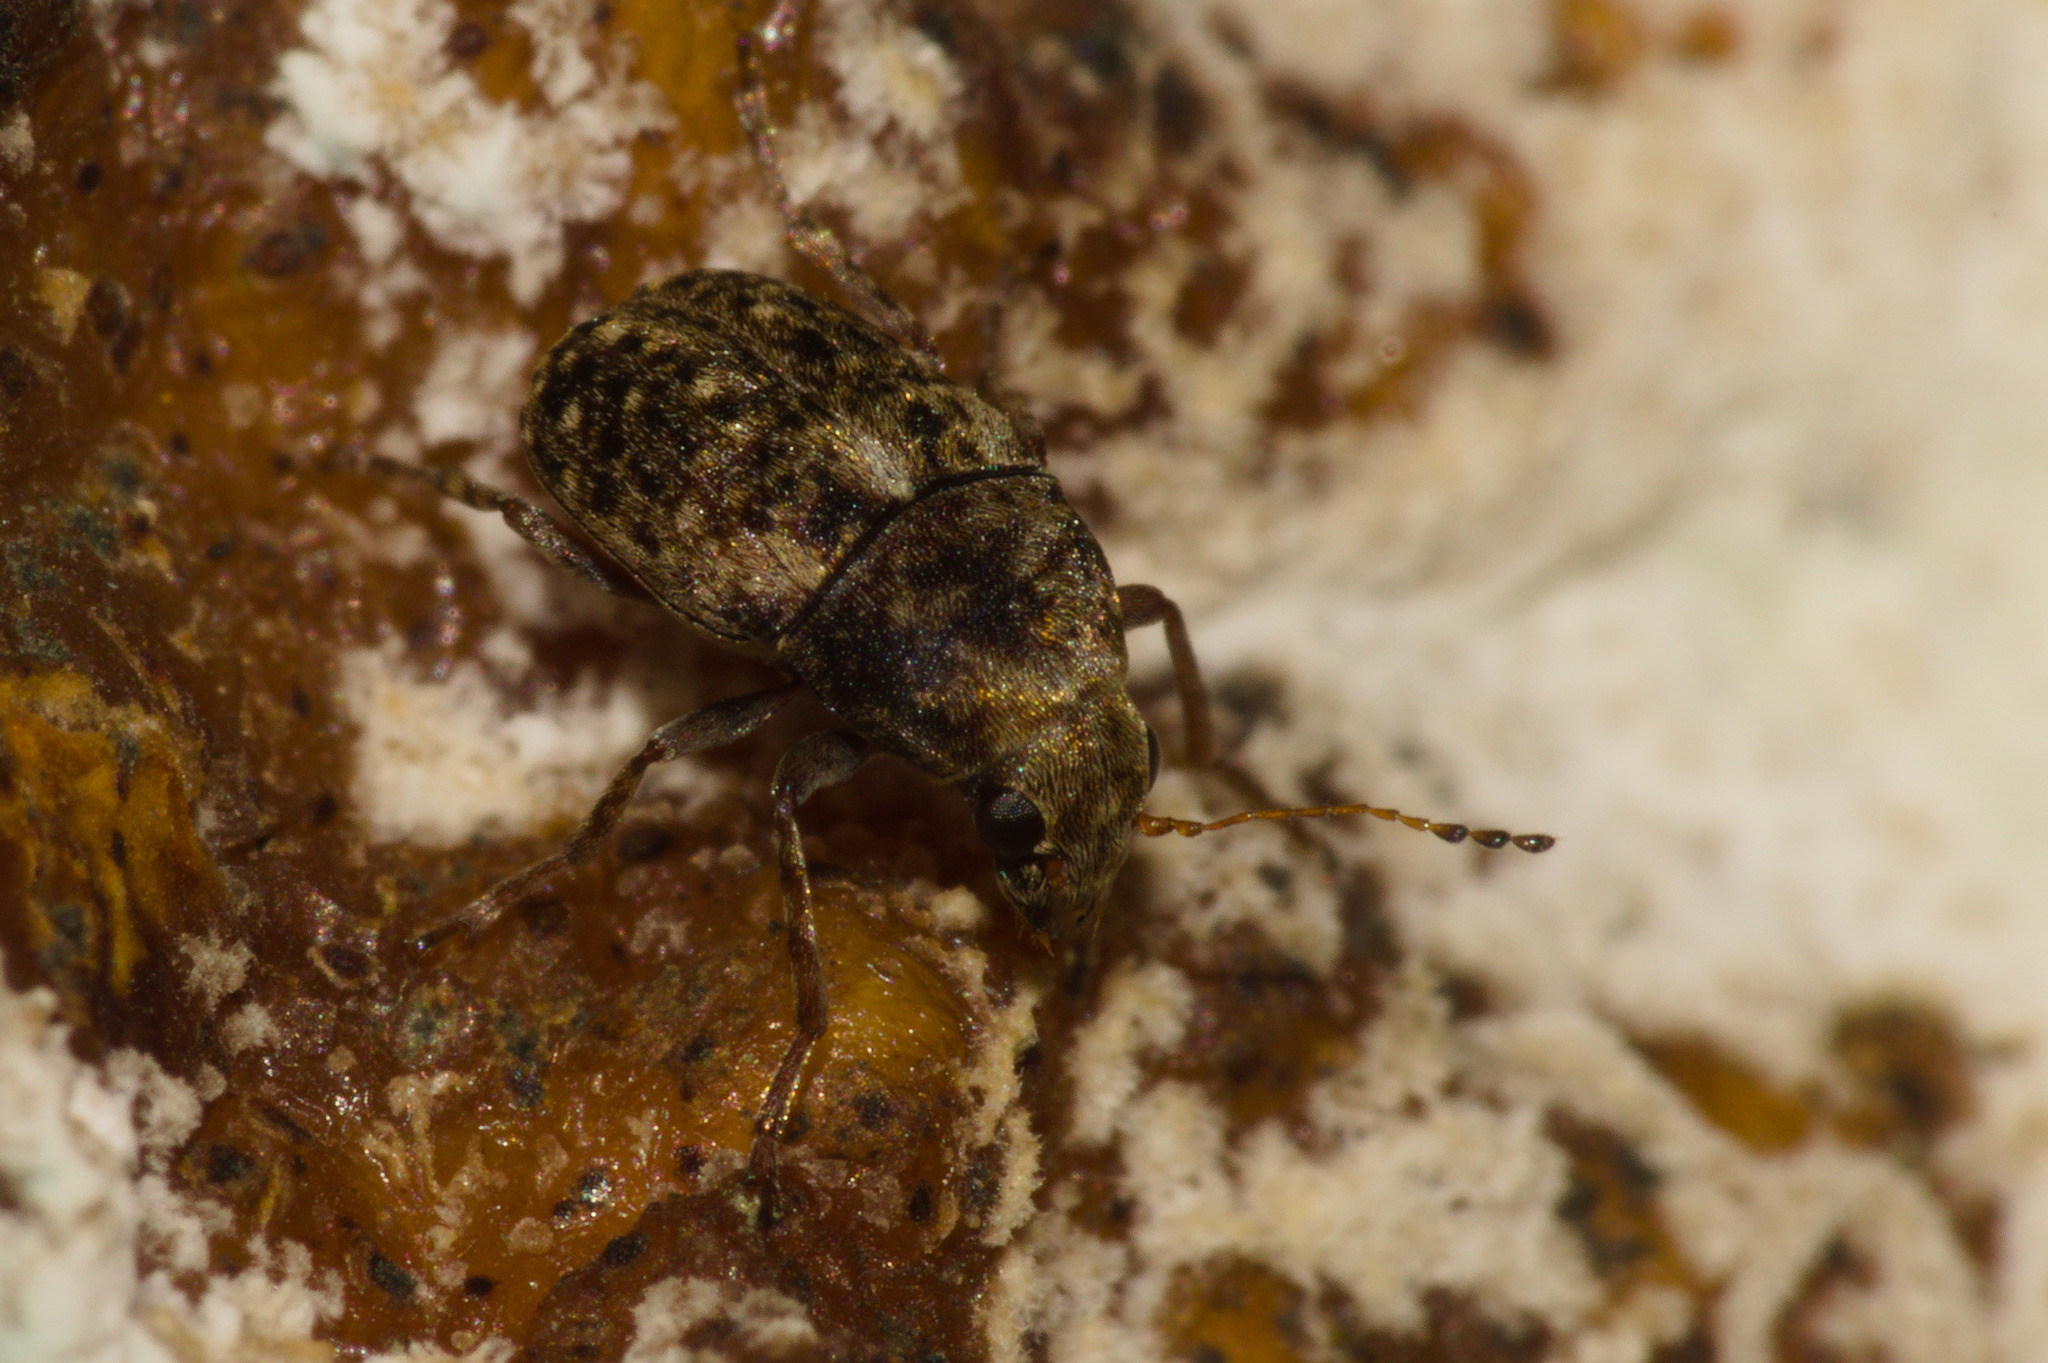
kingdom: Animalia
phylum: Arthropoda
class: Insecta
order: Coleoptera
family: Anthribidae
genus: Araecerus
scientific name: Araecerus fasciculatus
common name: Coffee bean weevil
